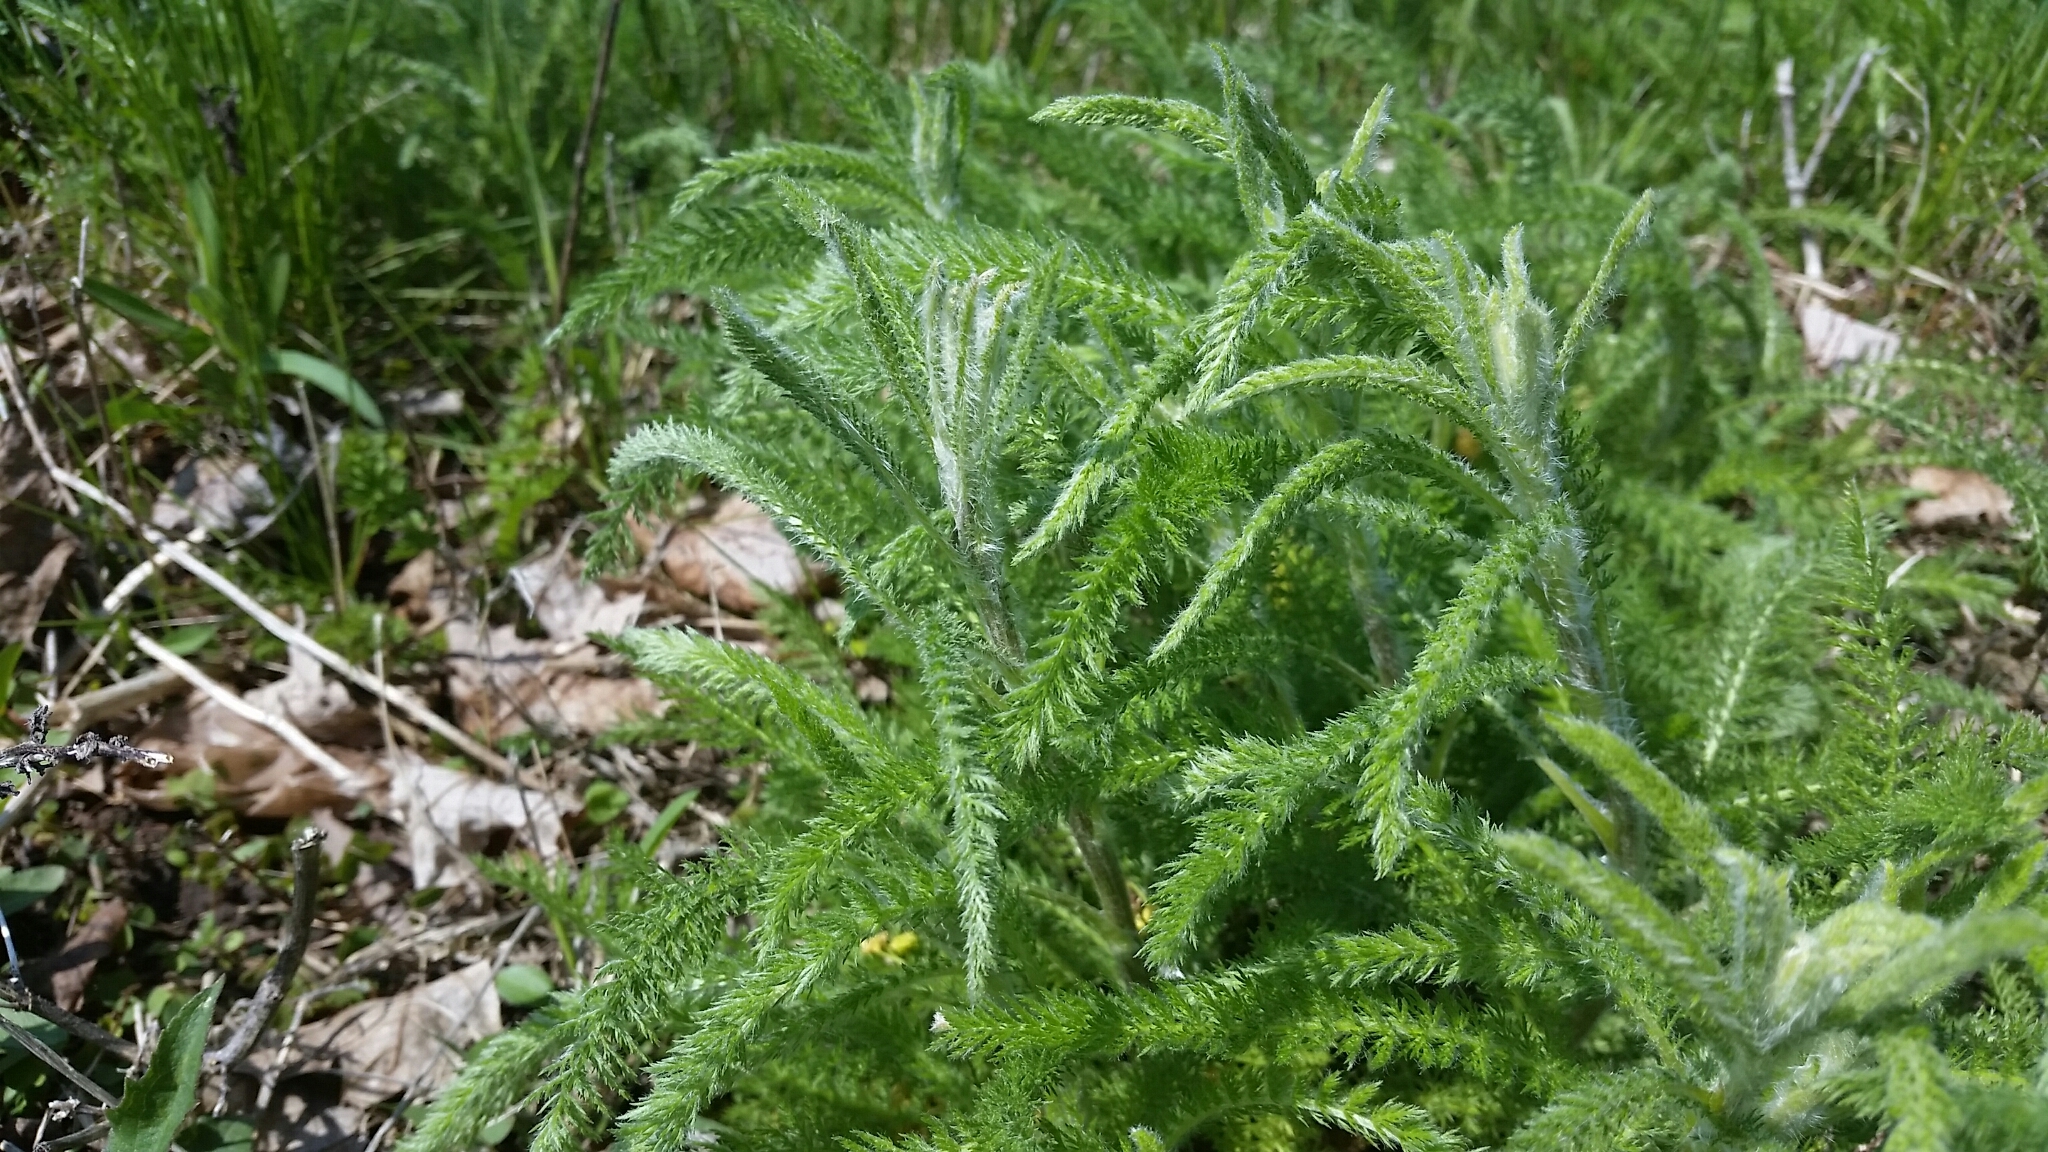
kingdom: Plantae
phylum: Tracheophyta
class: Magnoliopsida
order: Asterales
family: Asteraceae
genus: Achillea
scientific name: Achillea millefolium
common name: Yarrow
